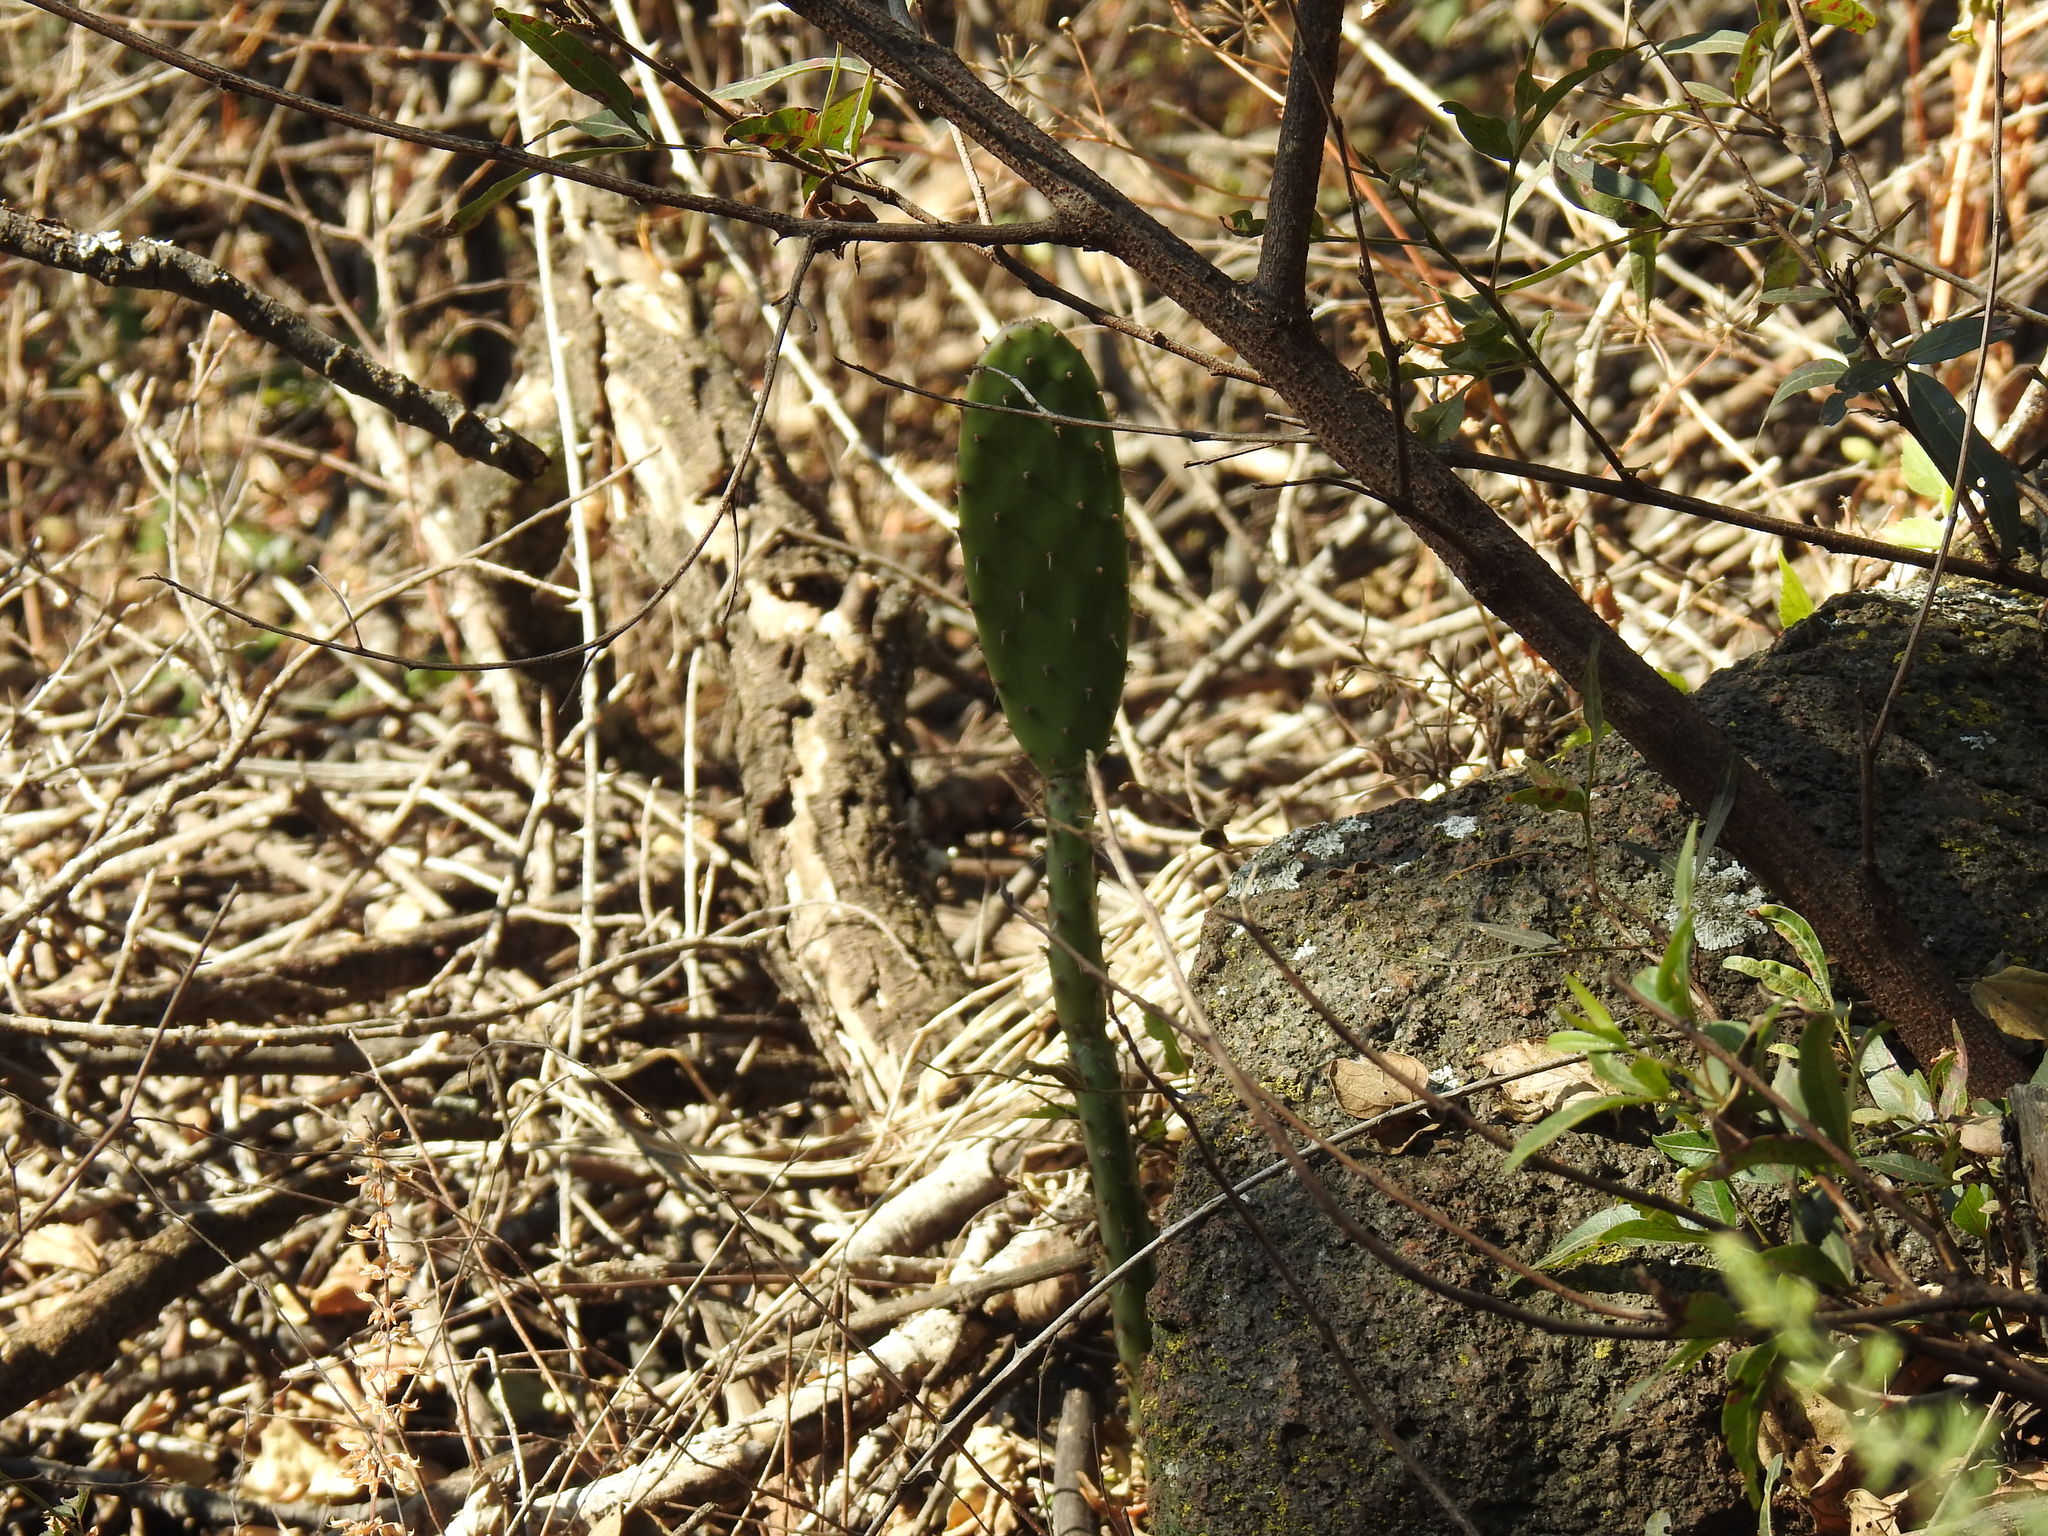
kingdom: Plantae
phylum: Tracheophyta
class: Magnoliopsida
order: Caryophyllales
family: Cactaceae
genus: Opuntia
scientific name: Opuntia ficus-indica
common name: Barbary fig
